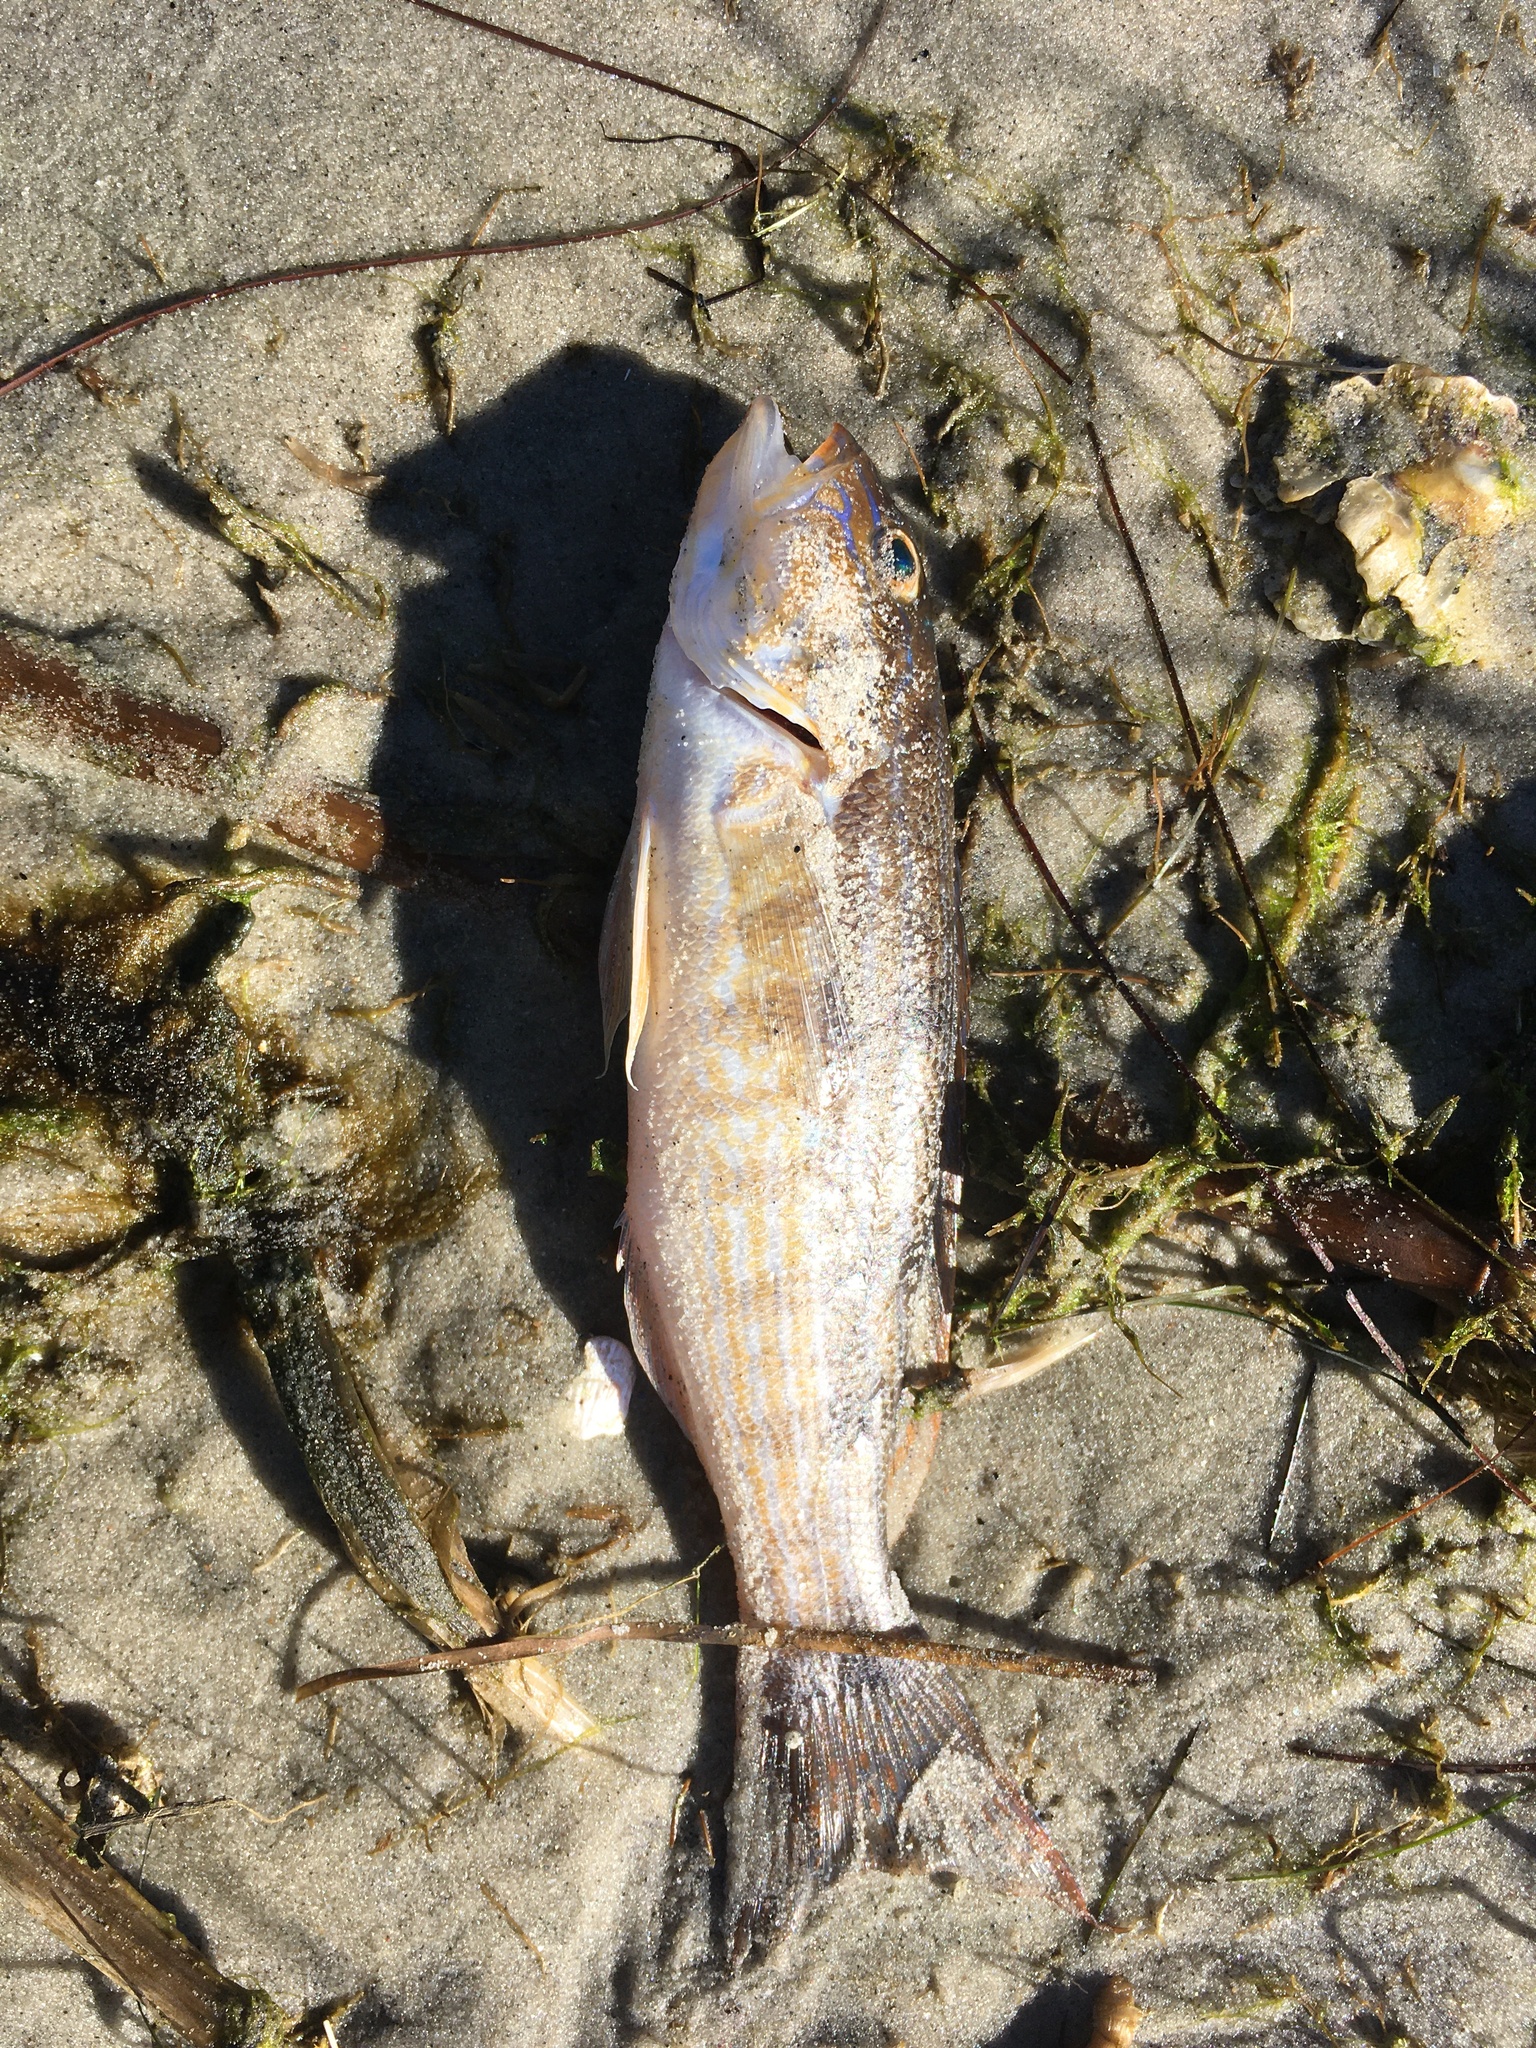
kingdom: Animalia
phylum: Chordata
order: Perciformes
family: Serranidae
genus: Diplectrum
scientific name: Diplectrum formosum
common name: Sand perch
